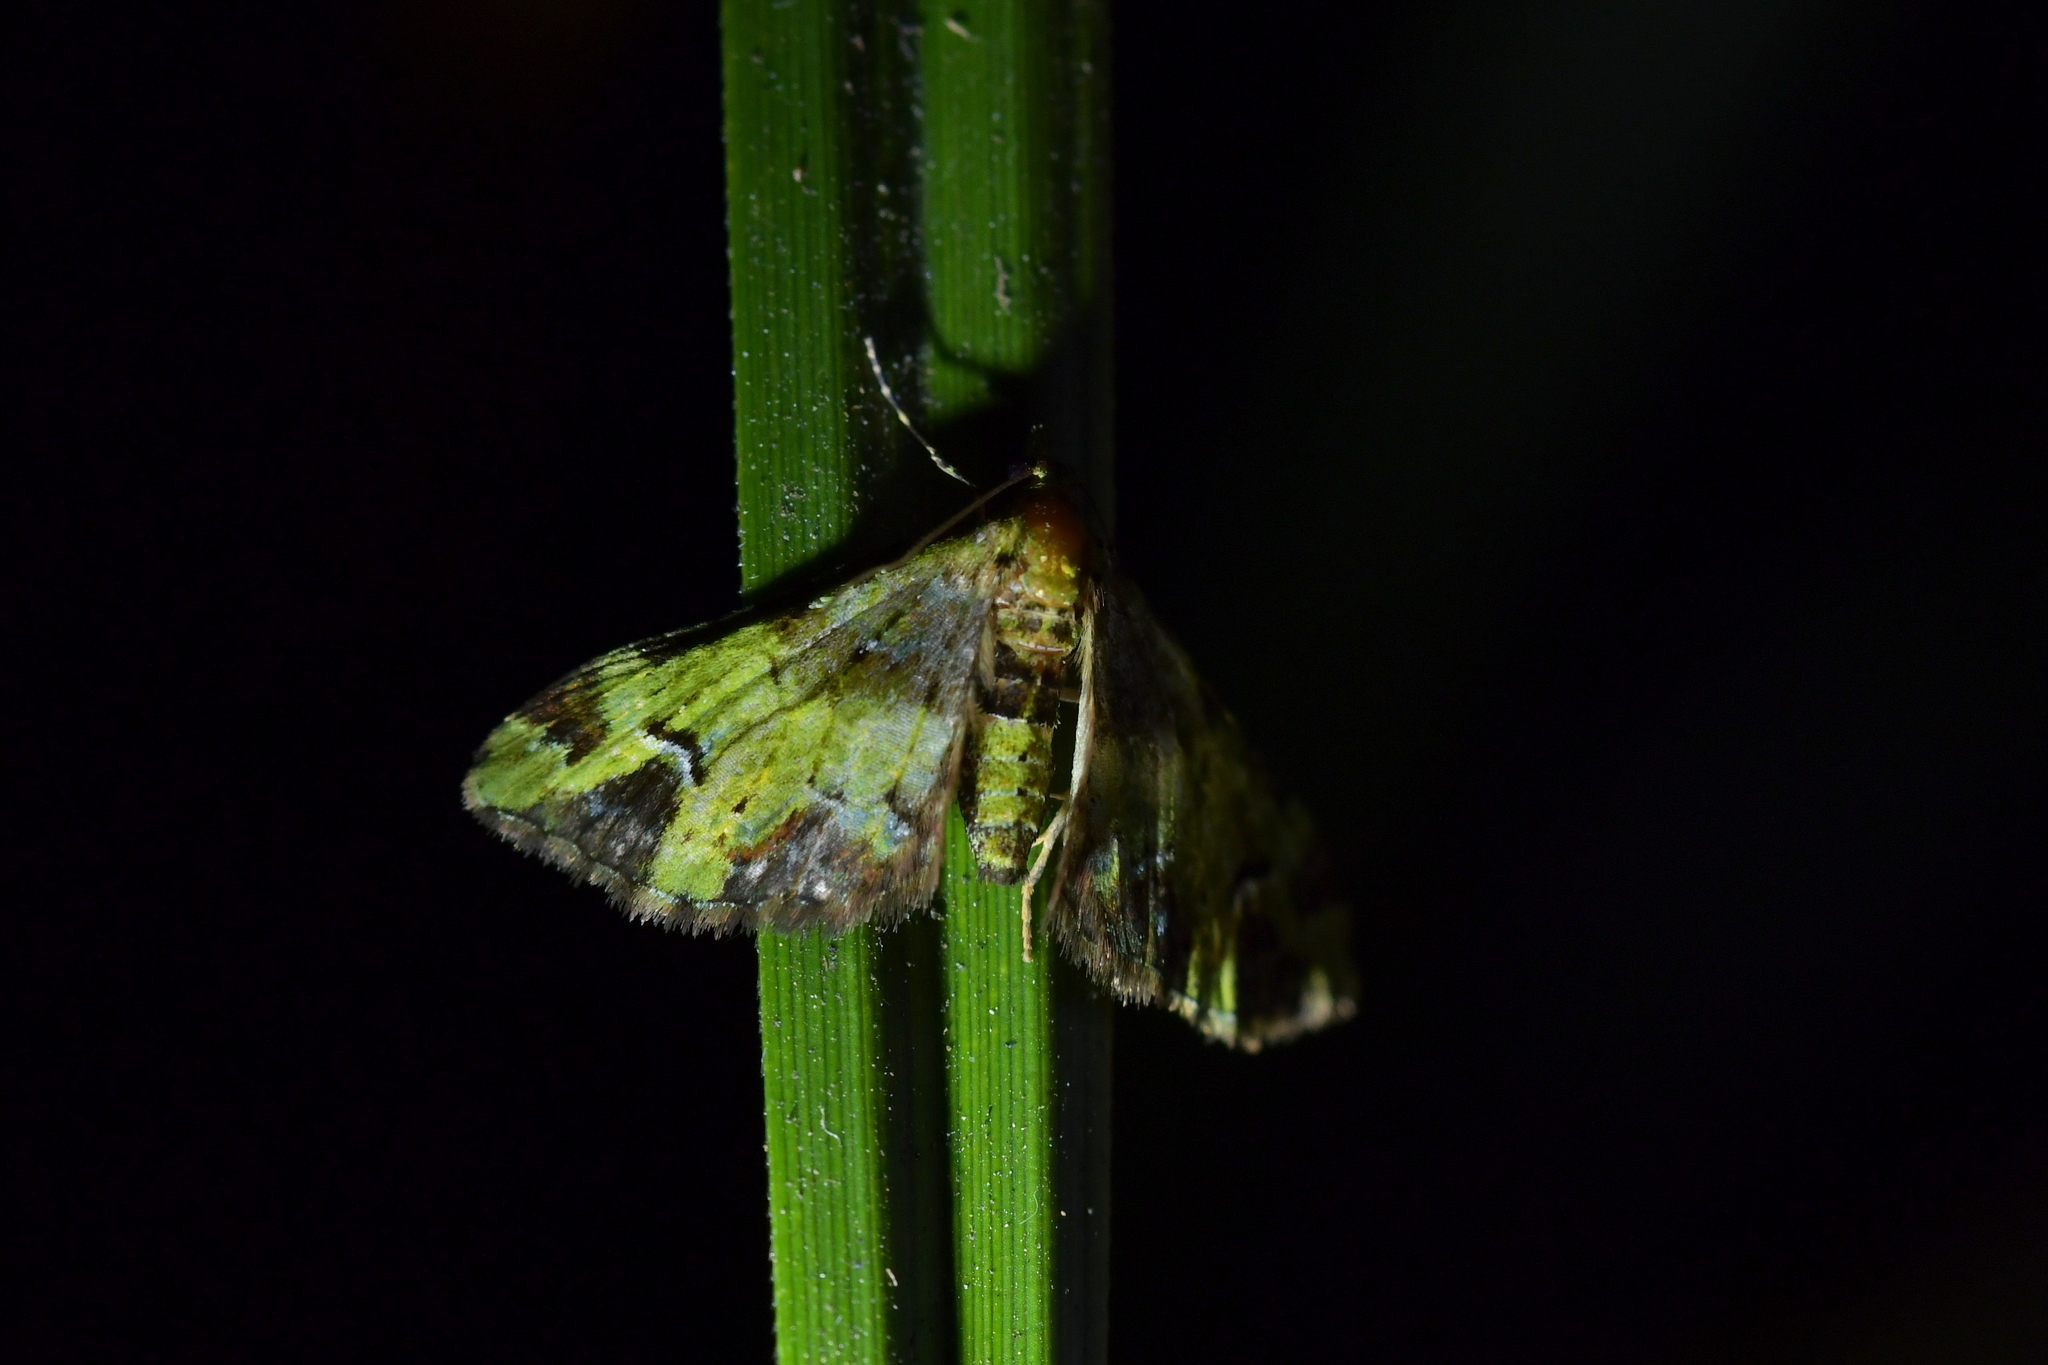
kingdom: Animalia
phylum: Arthropoda
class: Insecta
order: Lepidoptera
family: Geometridae
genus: Pasiphila
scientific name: Pasiphila malachita
